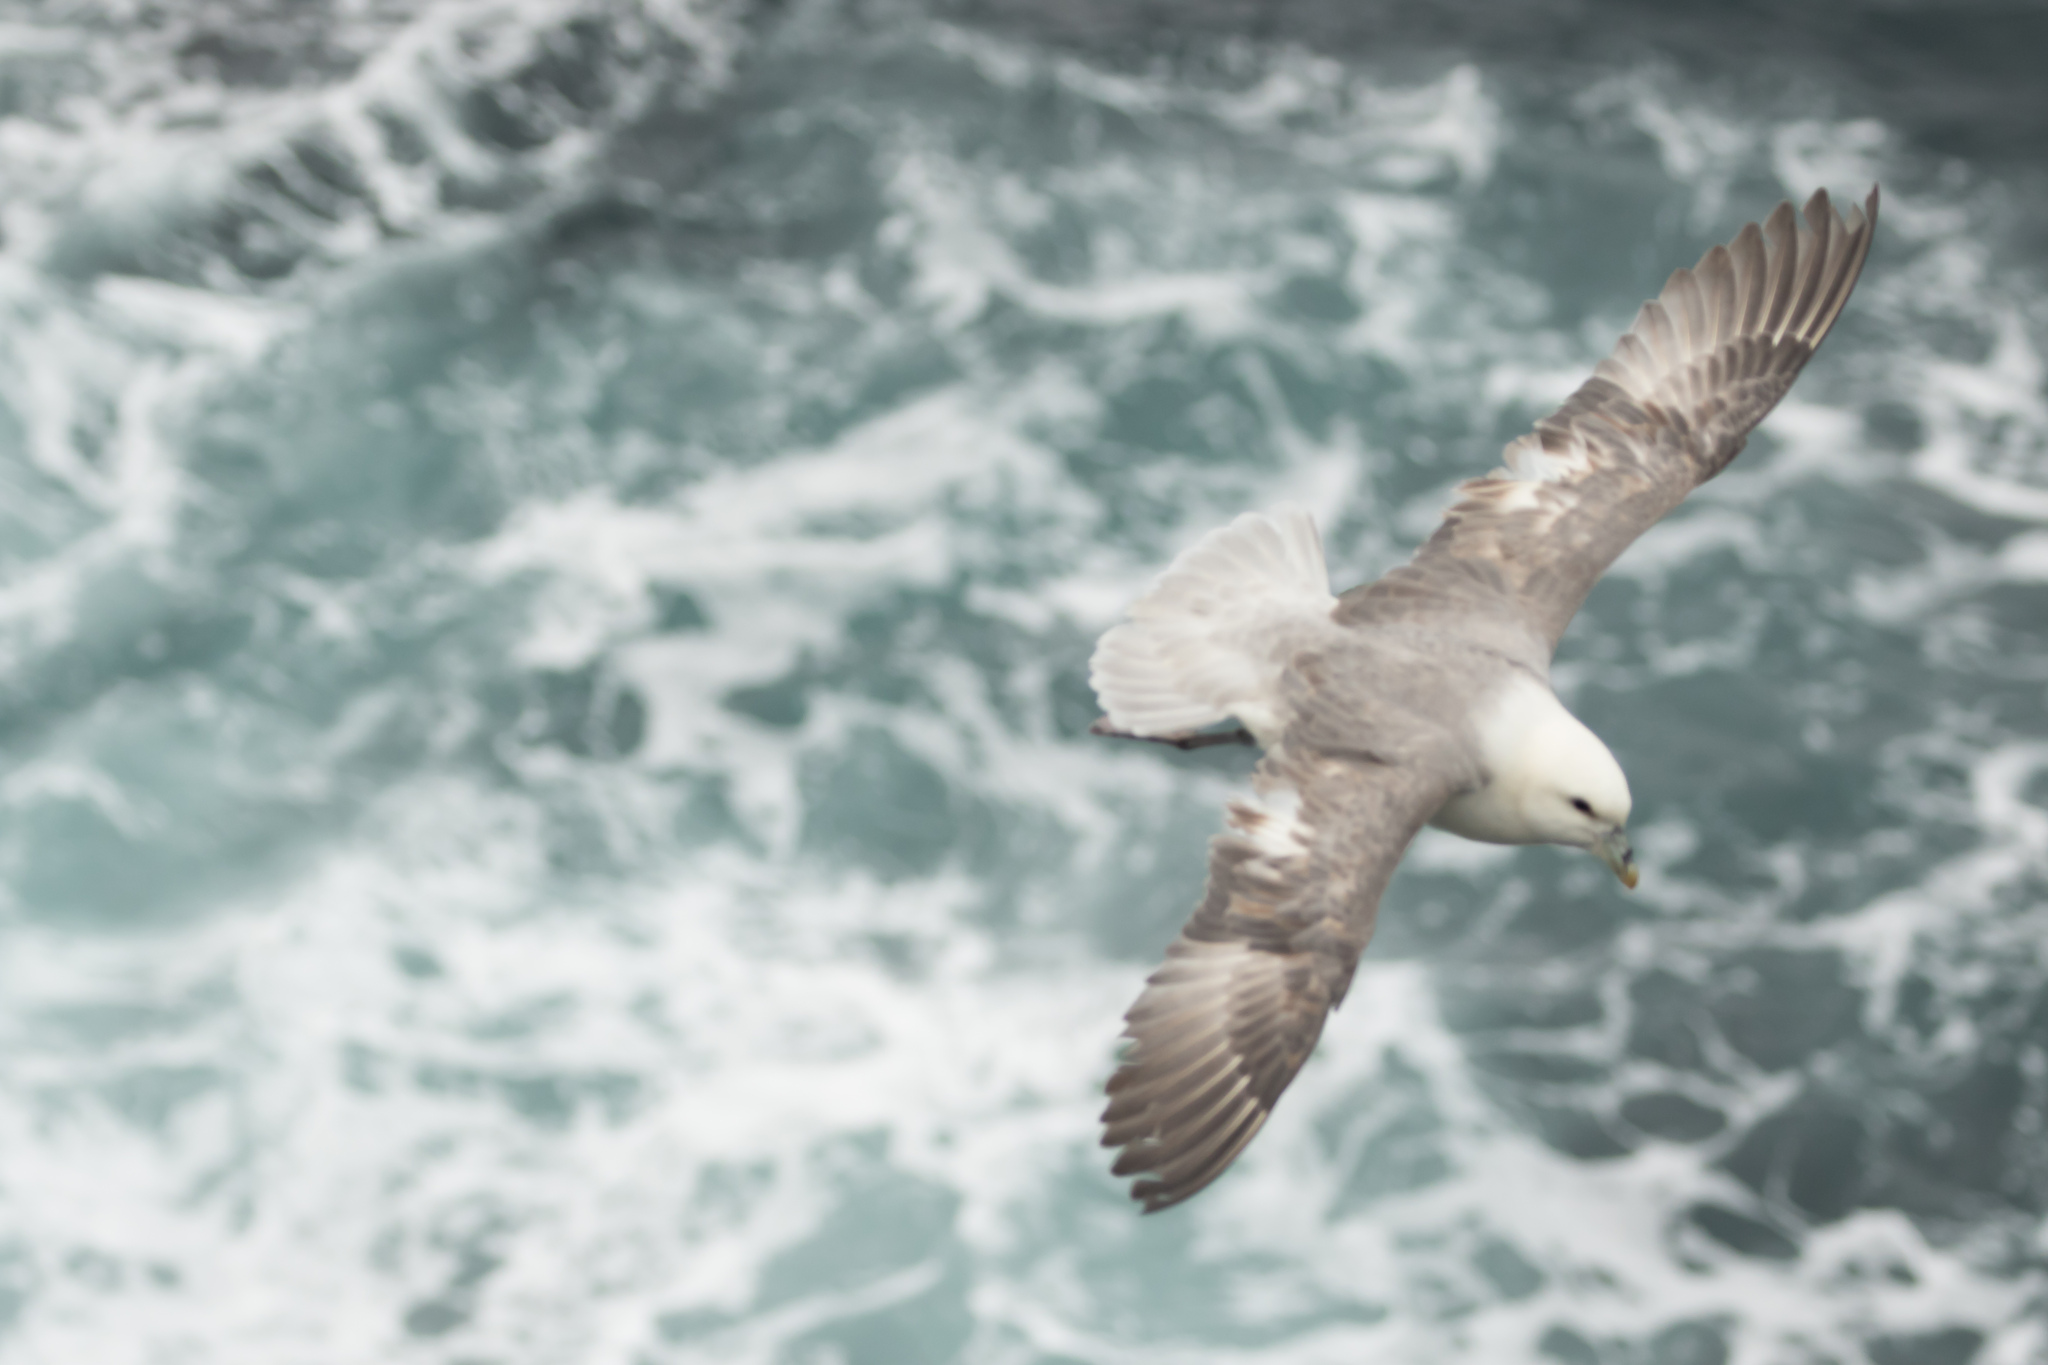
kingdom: Animalia
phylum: Chordata
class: Aves
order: Procellariiformes
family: Procellariidae
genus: Fulmarus
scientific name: Fulmarus glacialis
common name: Northern fulmar
